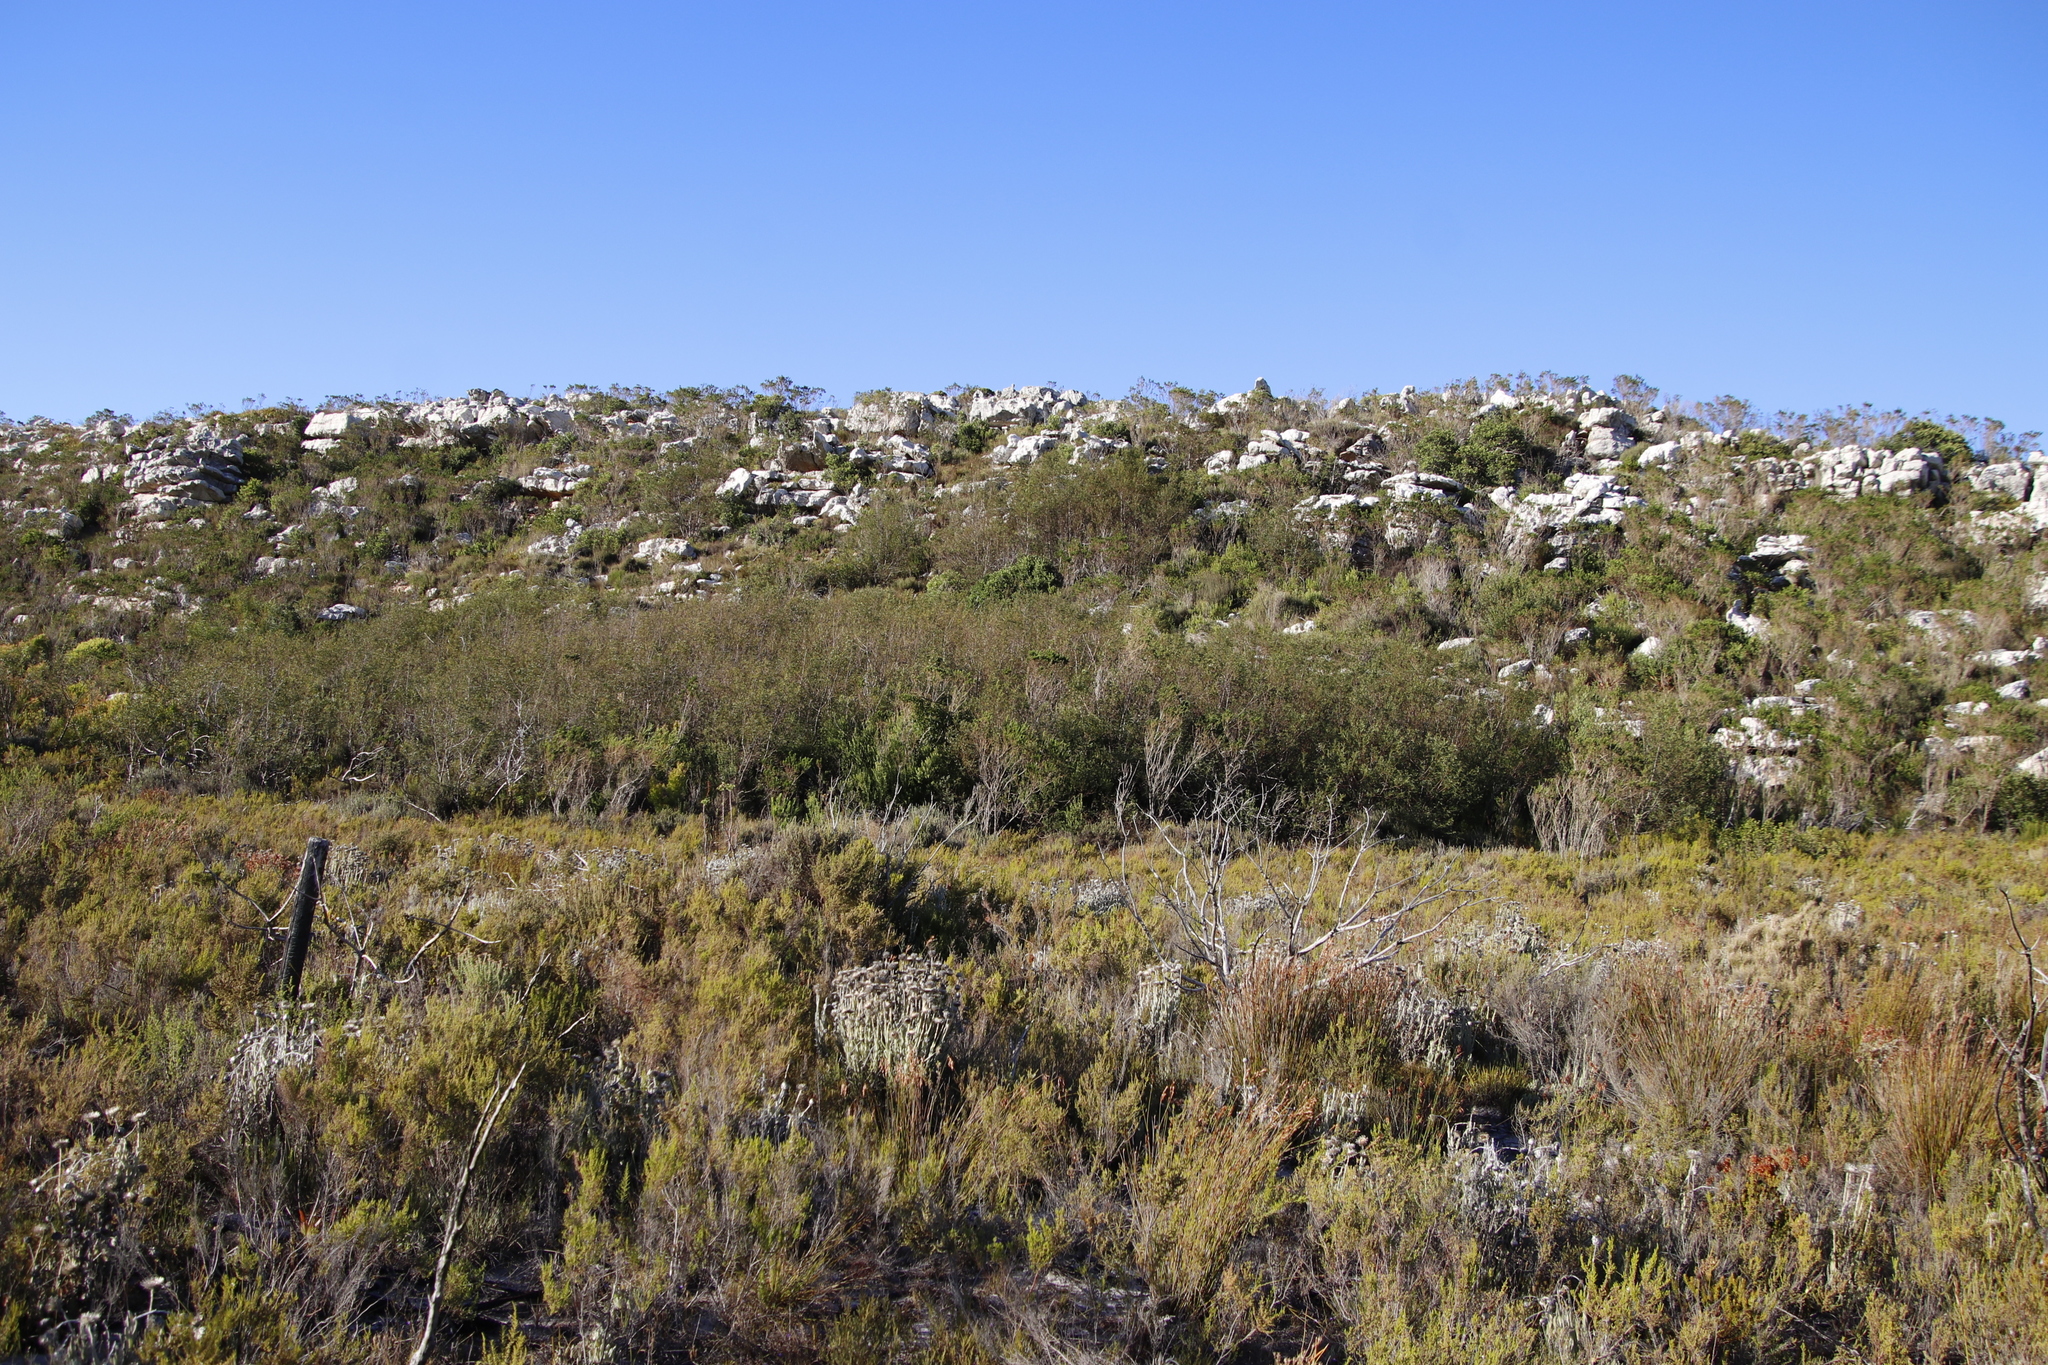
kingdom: Plantae
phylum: Tracheophyta
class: Magnoliopsida
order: Fabales
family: Fabaceae
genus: Virgilia
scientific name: Virgilia oroboides
